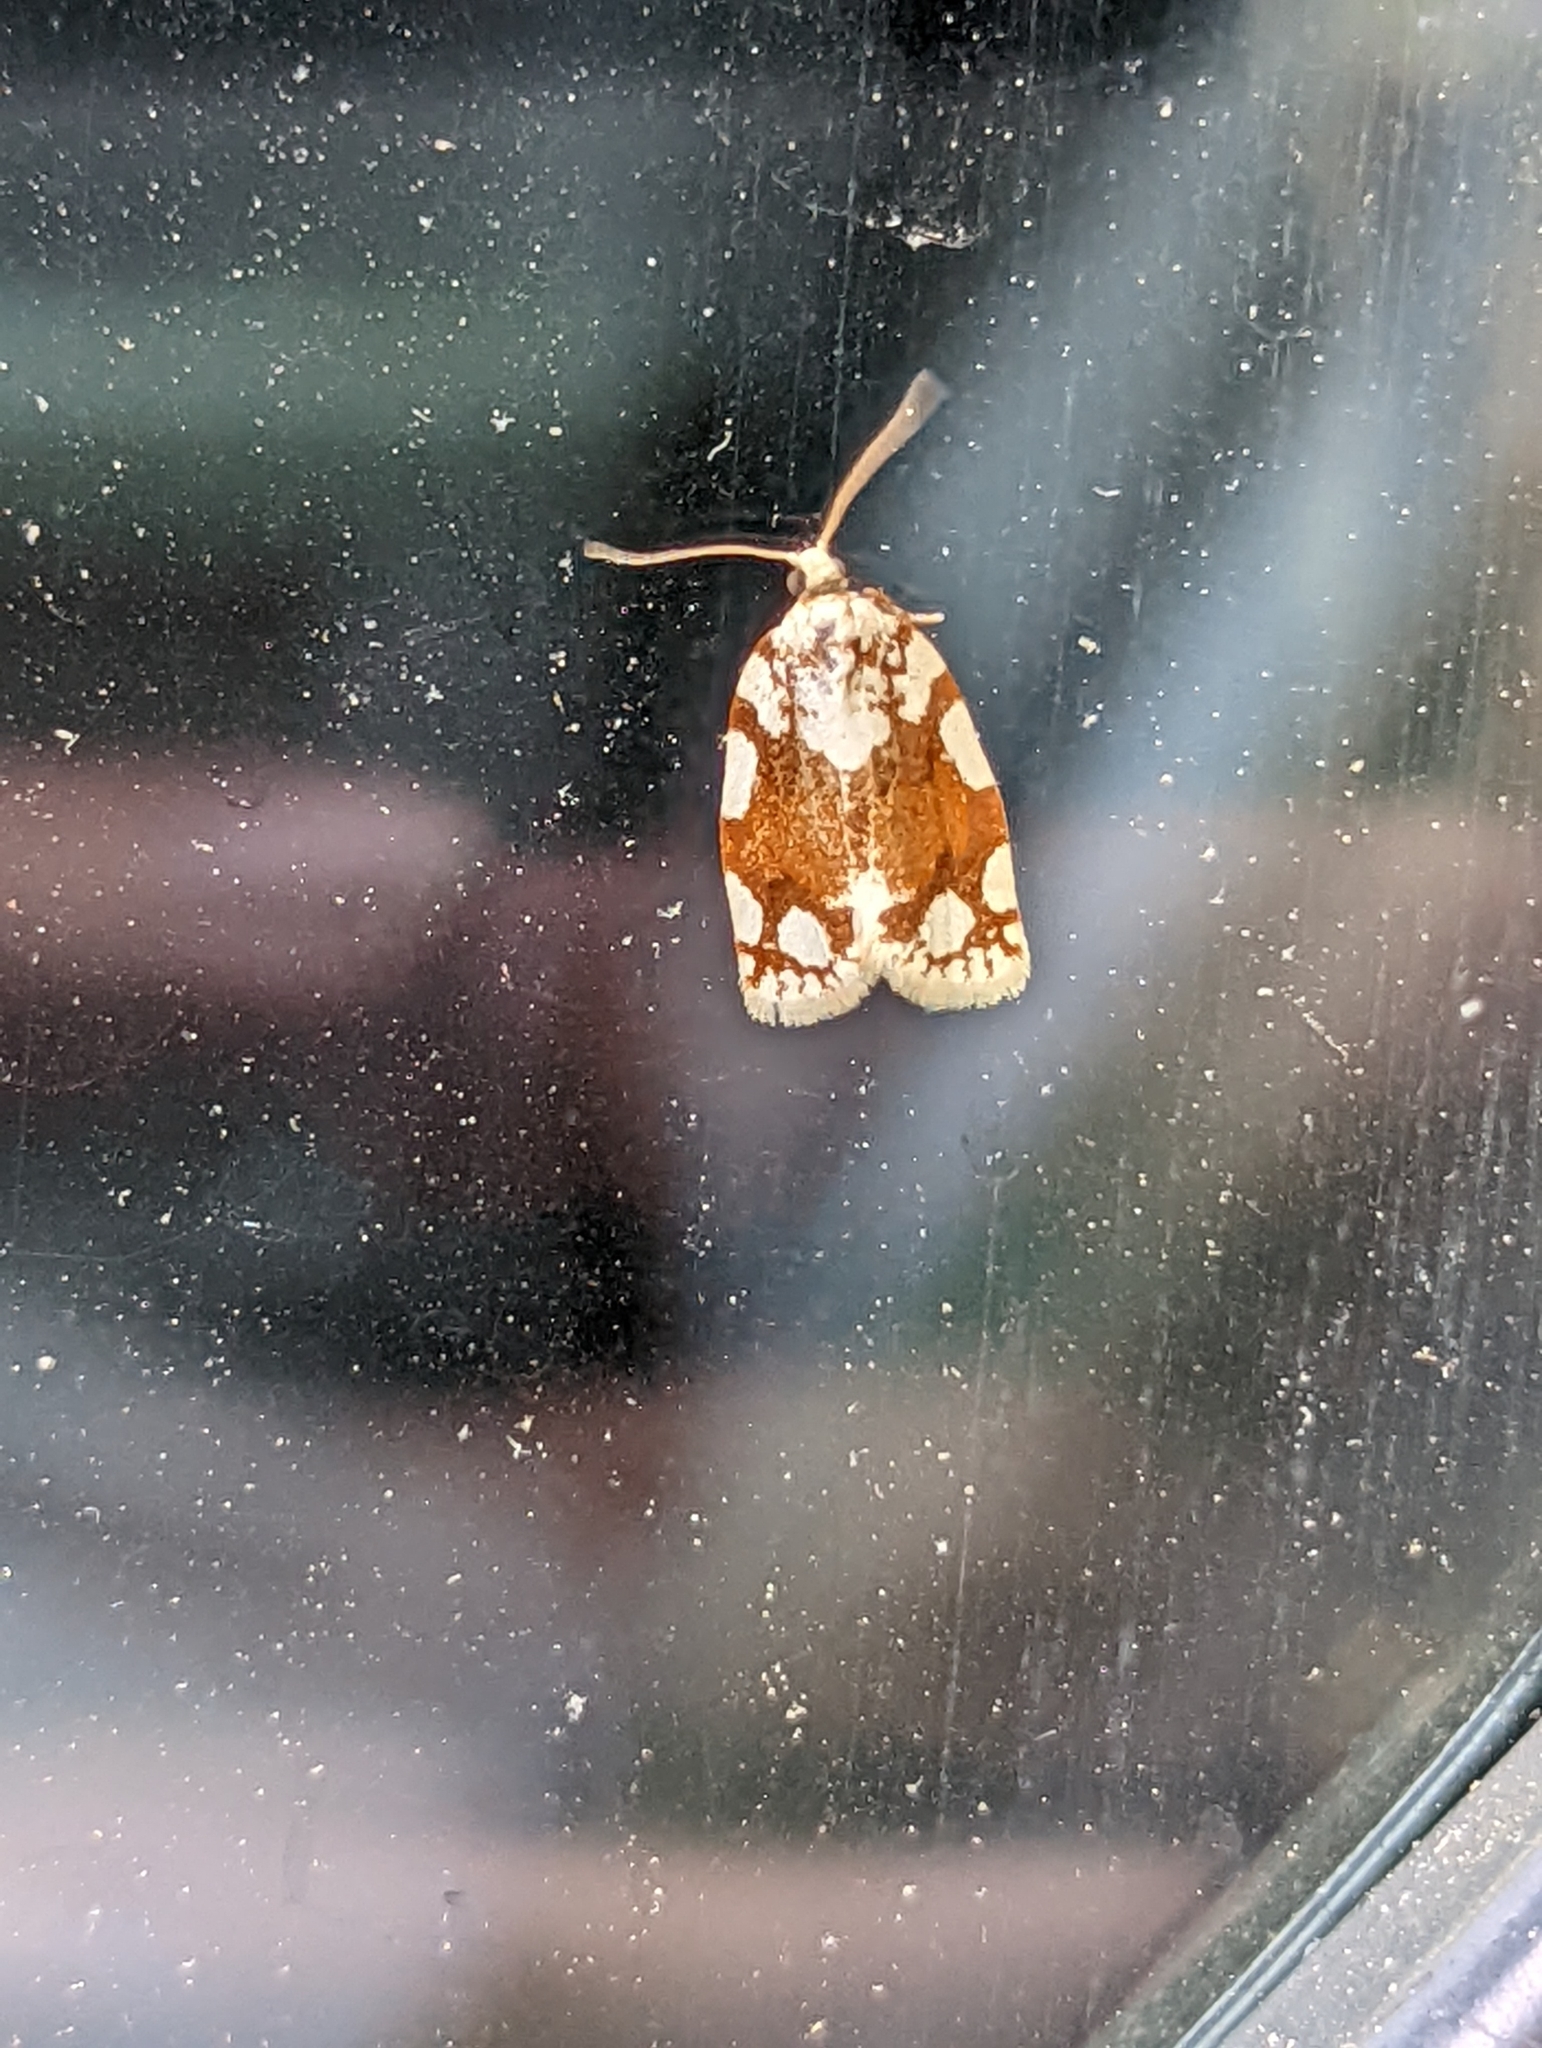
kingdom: Animalia
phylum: Arthropoda
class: Insecta
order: Lepidoptera
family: Tortricidae
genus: Argyrotaenia
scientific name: Argyrotaenia alisellana
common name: White-spotted leafroller moth
